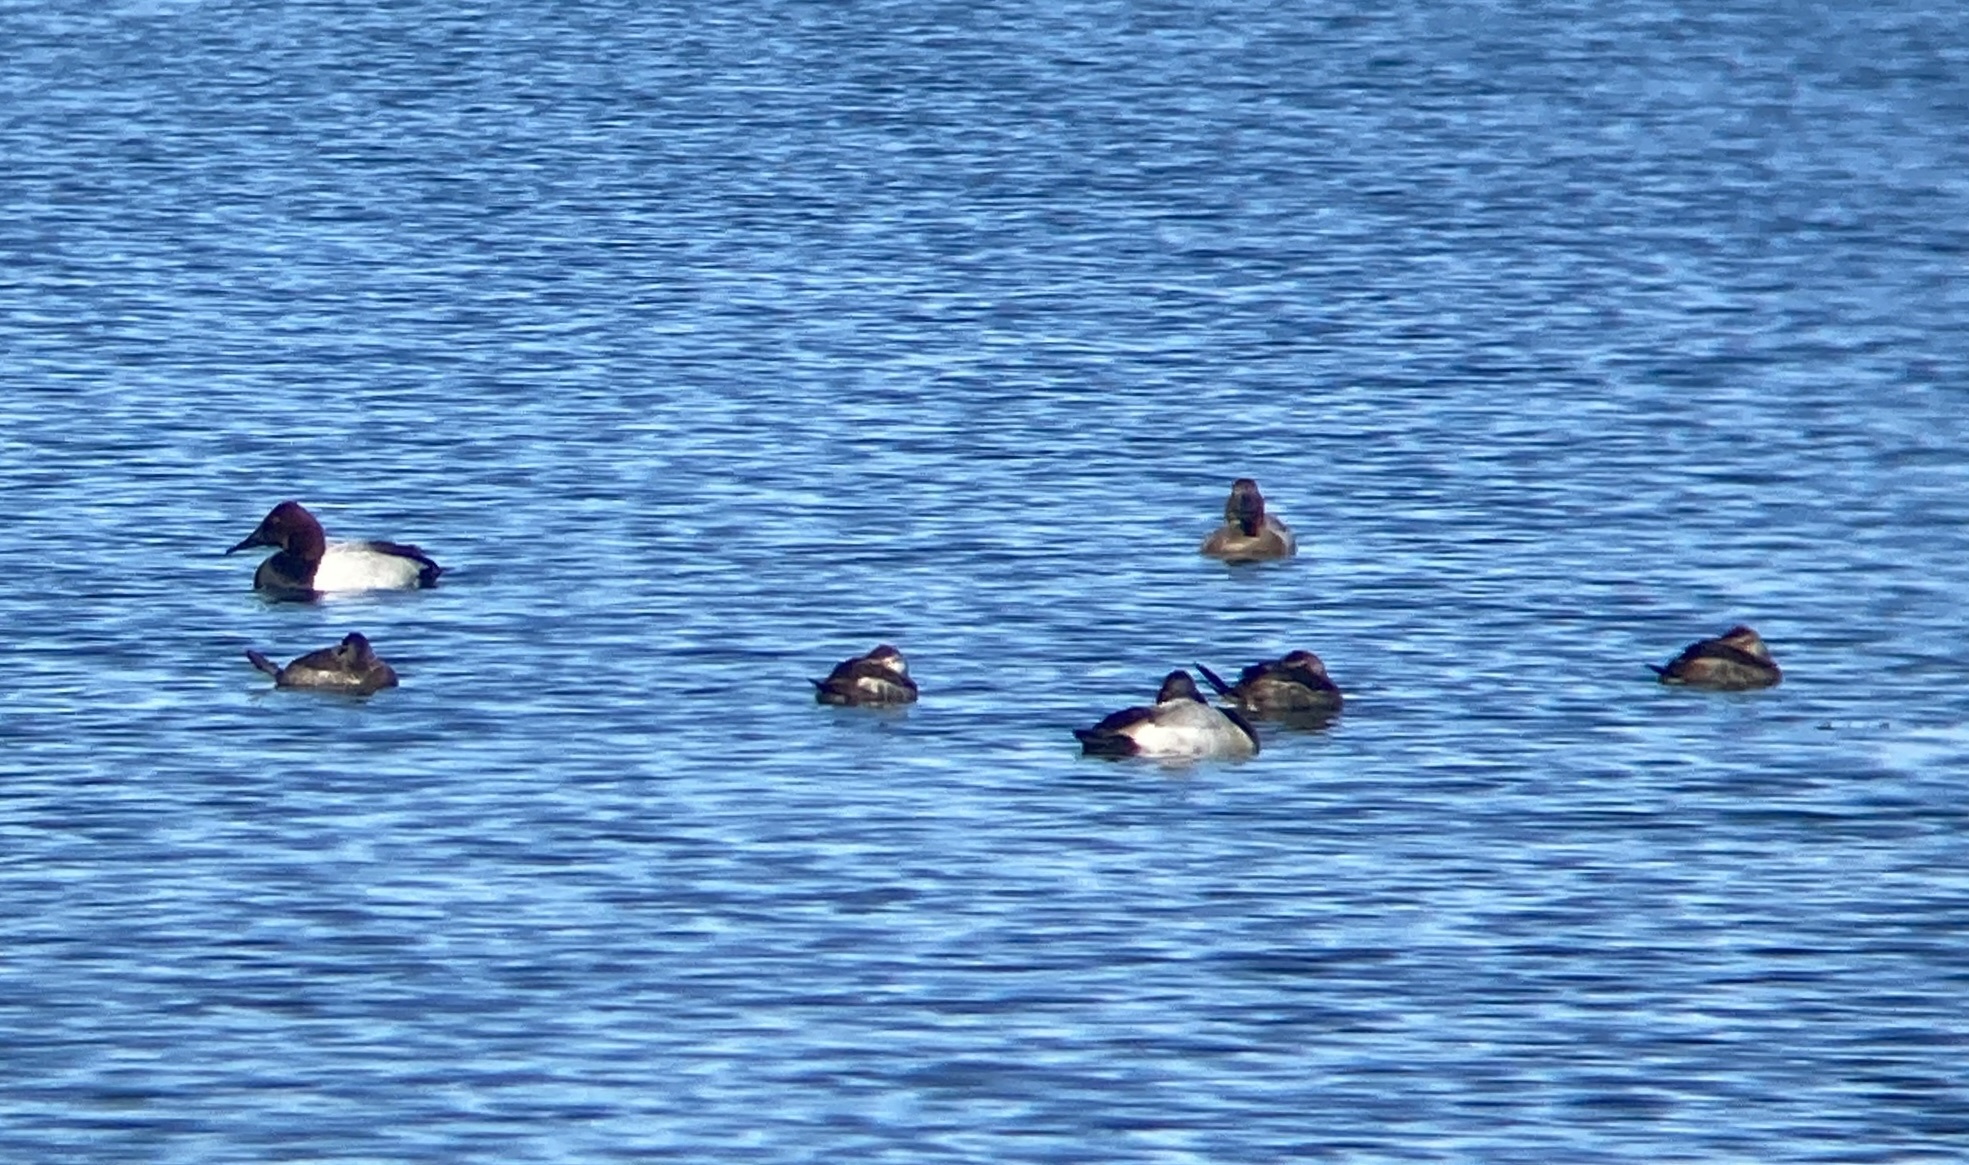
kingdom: Animalia
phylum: Chordata
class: Aves
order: Anseriformes
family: Anatidae
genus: Aythya
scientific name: Aythya valisineria
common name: Canvasback
